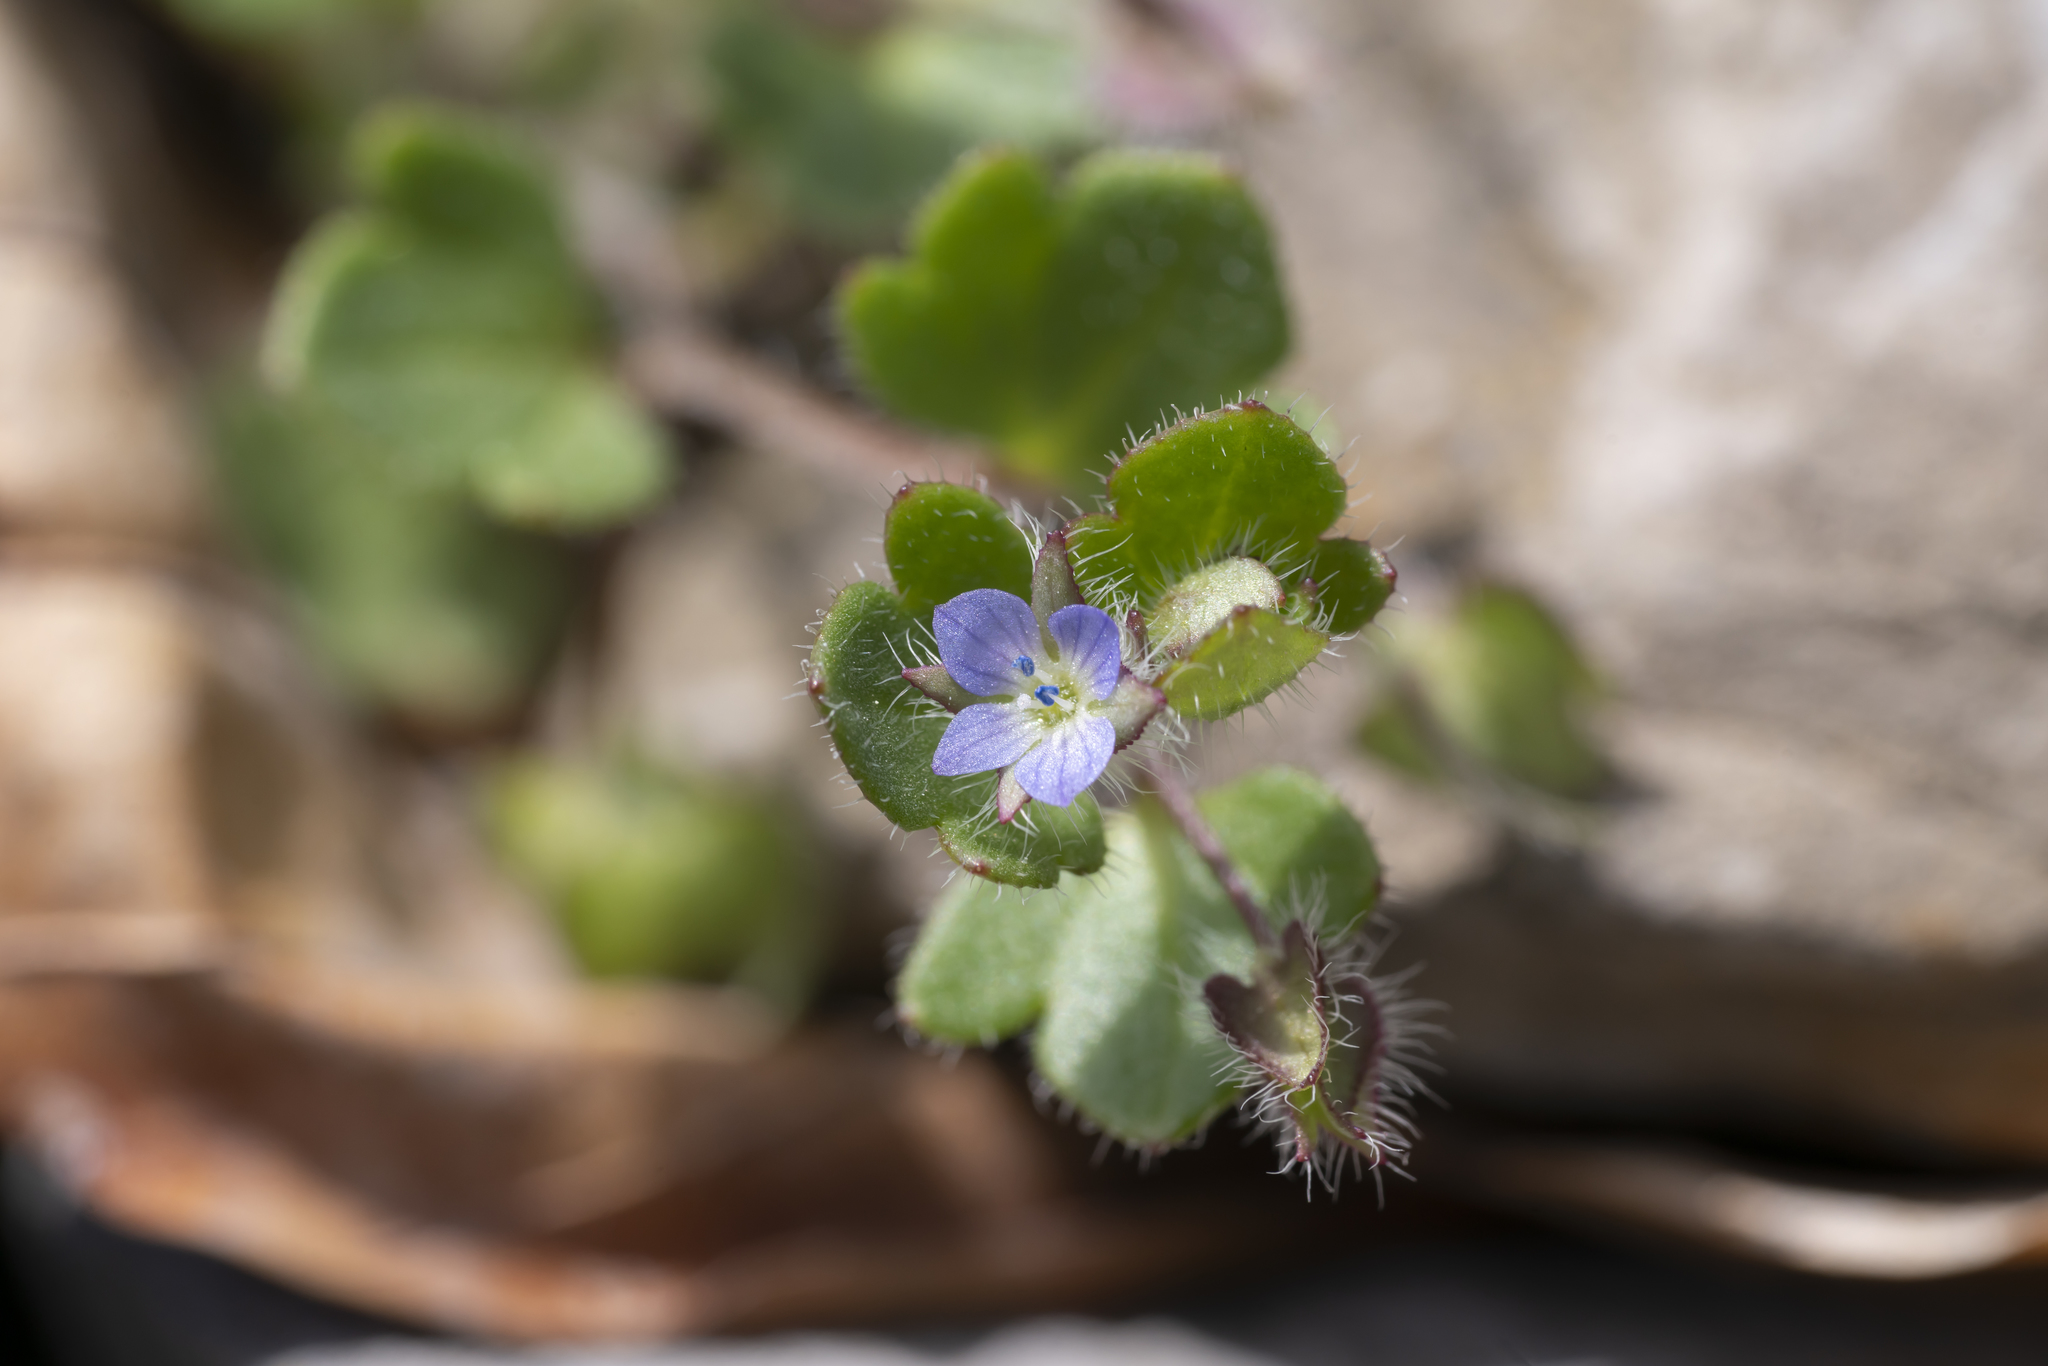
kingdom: Plantae
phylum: Tracheophyta
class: Magnoliopsida
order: Lamiales
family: Plantaginaceae
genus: Veronica
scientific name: Veronica hederifolia
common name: Ivy-leaved speedwell
